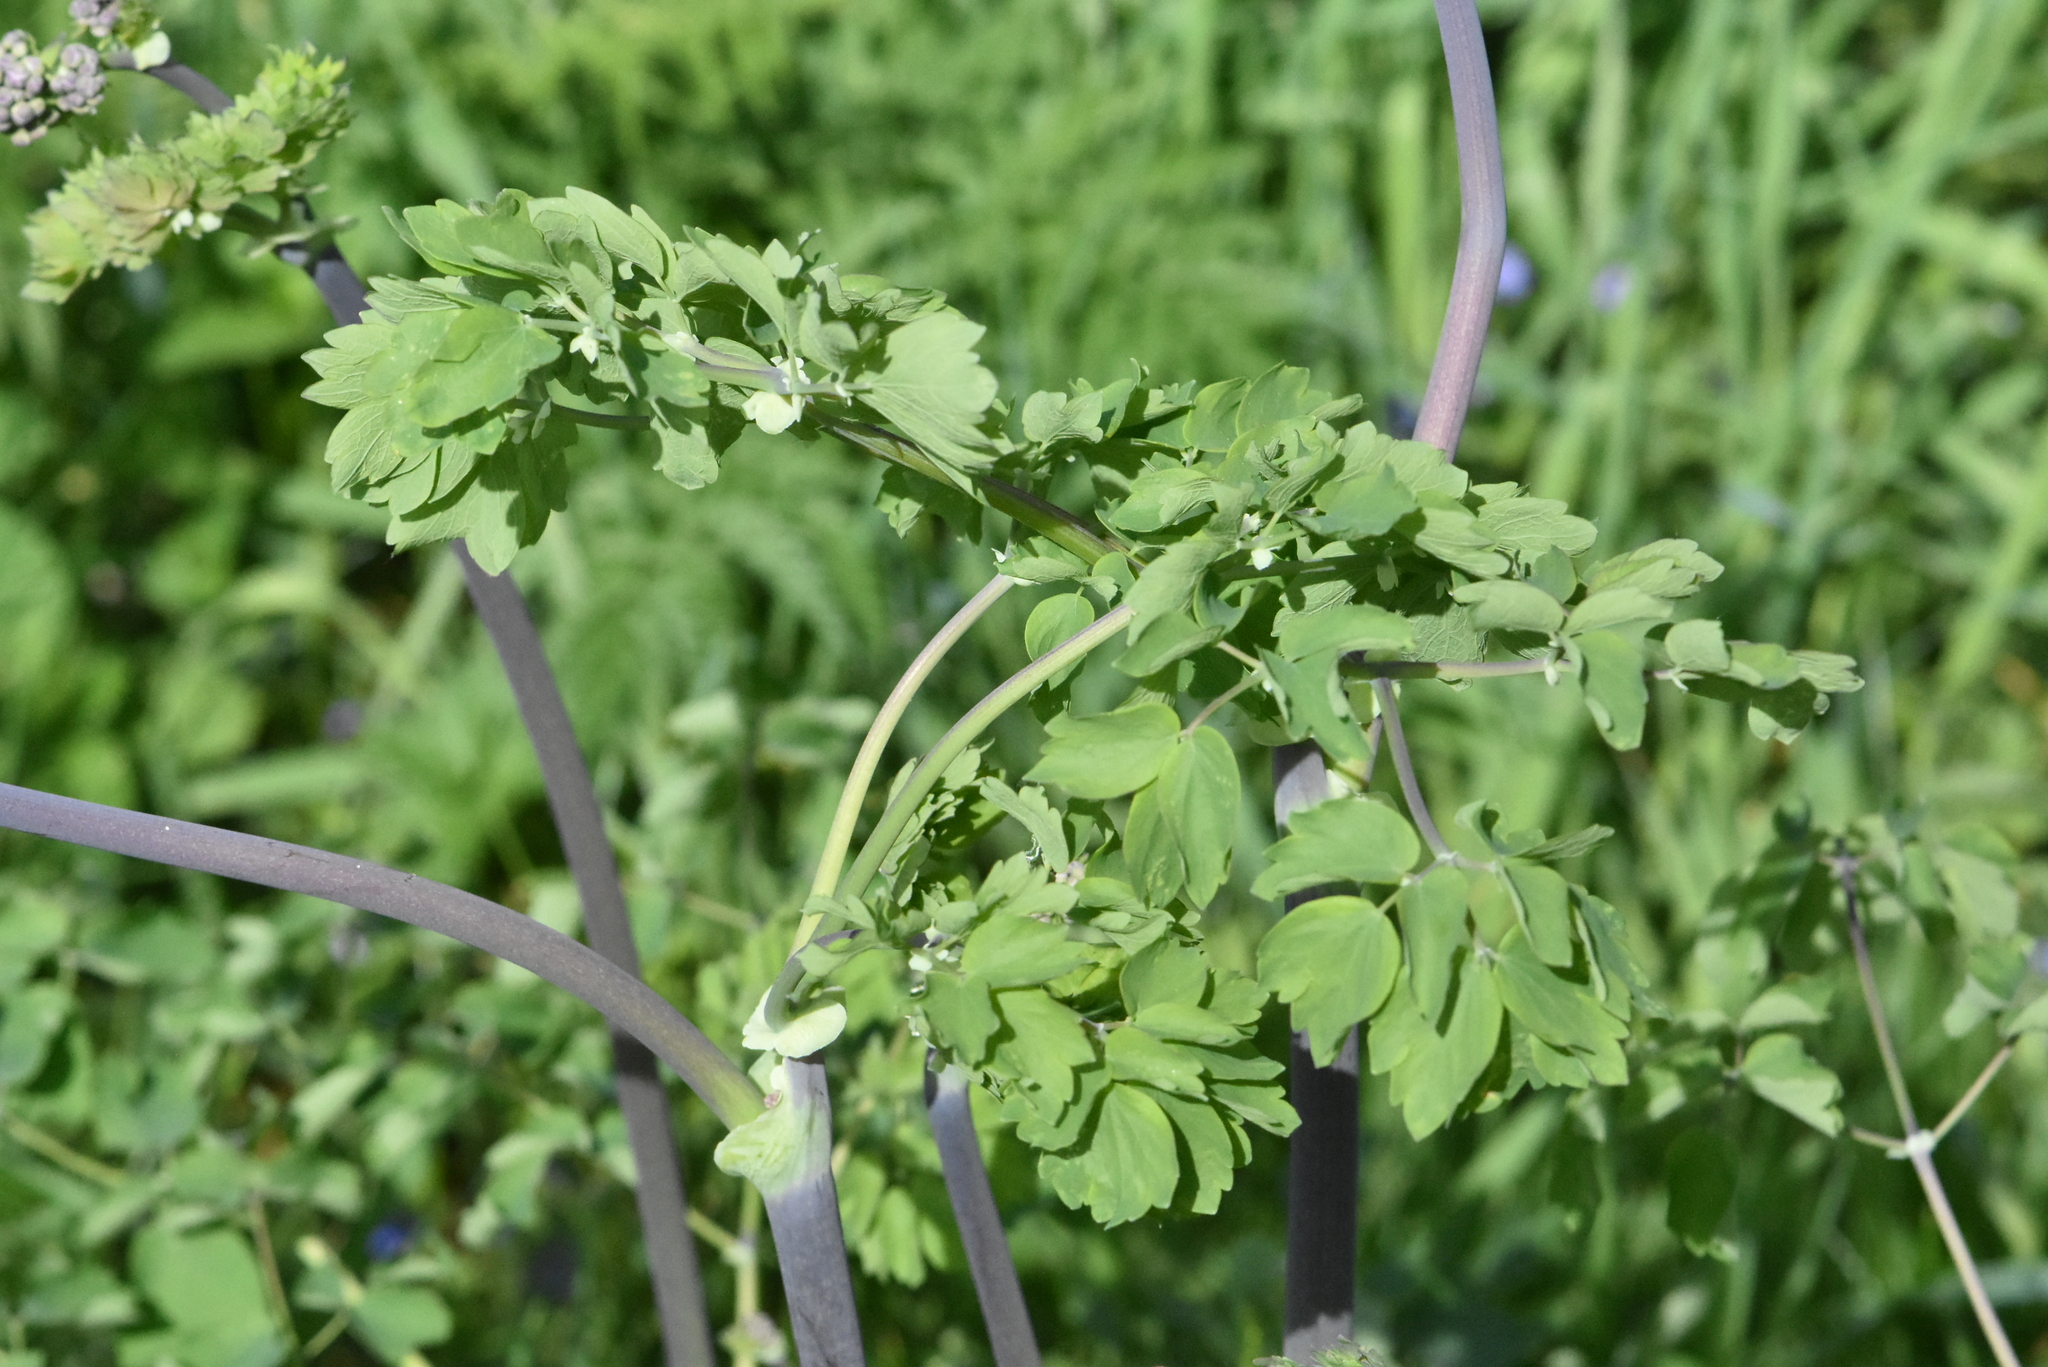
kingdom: Plantae
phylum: Tracheophyta
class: Magnoliopsida
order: Ranunculales
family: Ranunculaceae
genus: Thalictrum
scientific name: Thalictrum aquilegiifolium
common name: French meadow-rue
